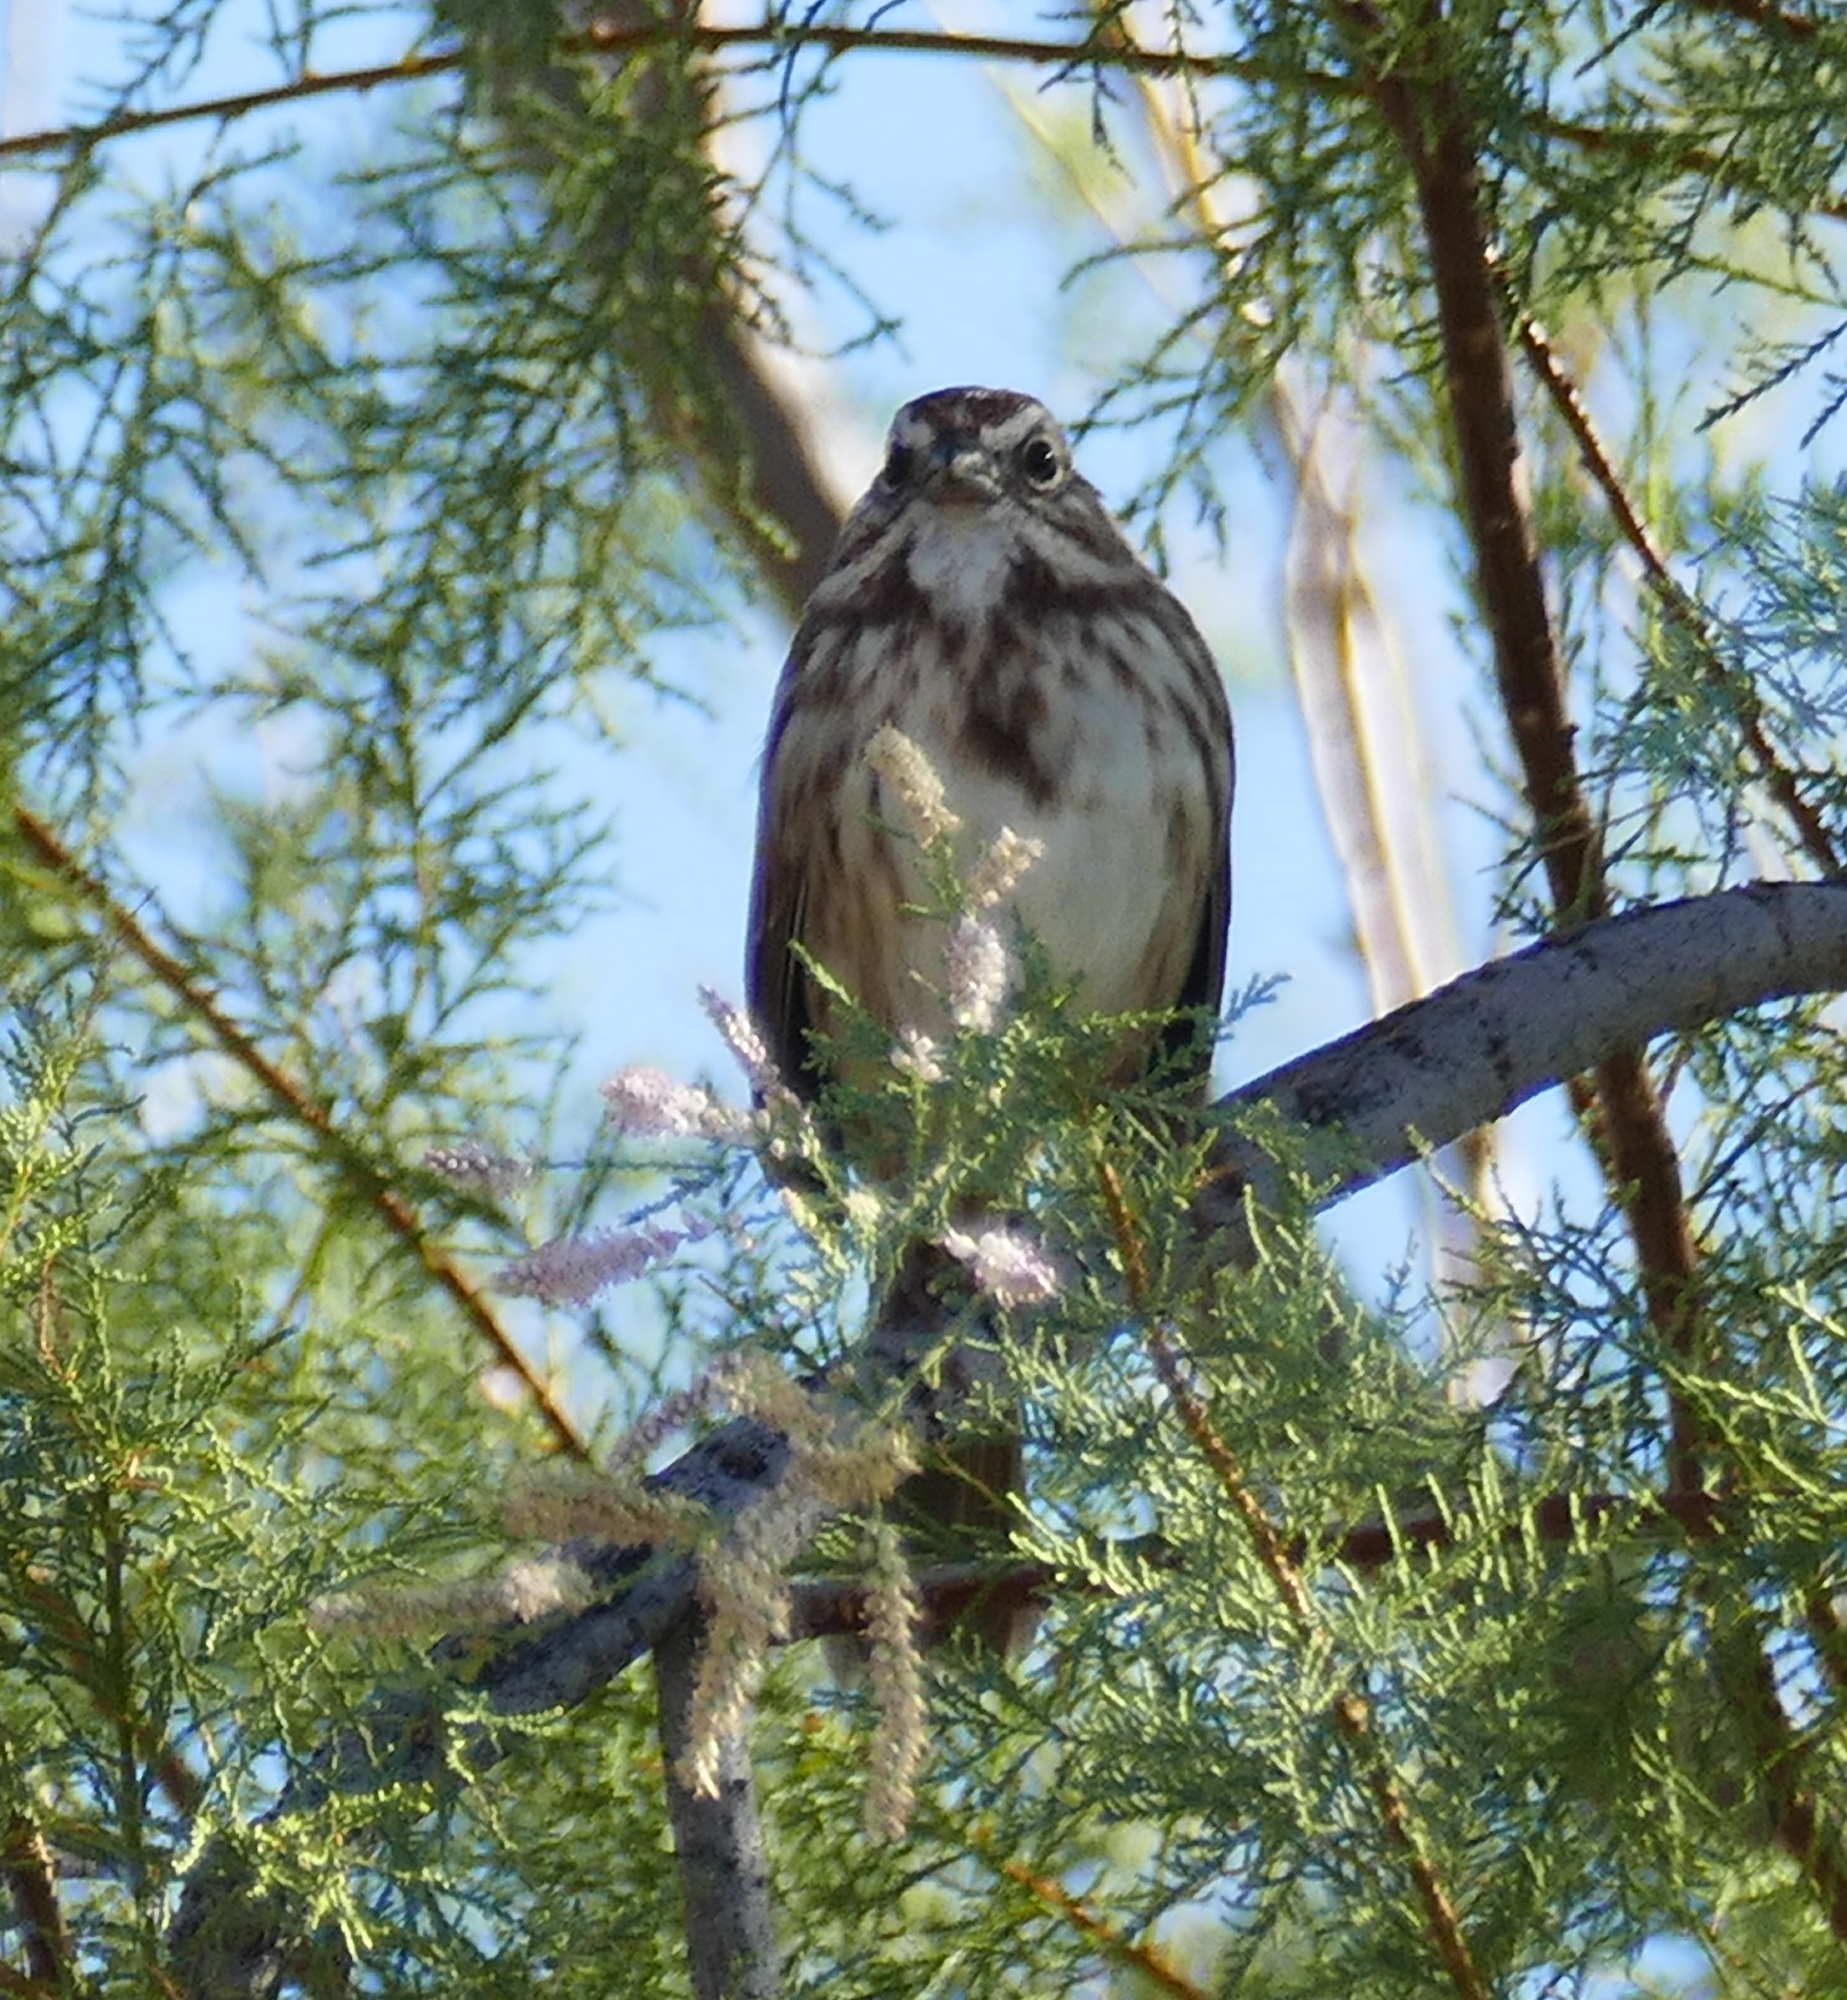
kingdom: Animalia
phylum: Chordata
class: Aves
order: Passeriformes
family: Passerellidae
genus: Melospiza
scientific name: Melospiza melodia
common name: Song sparrow
